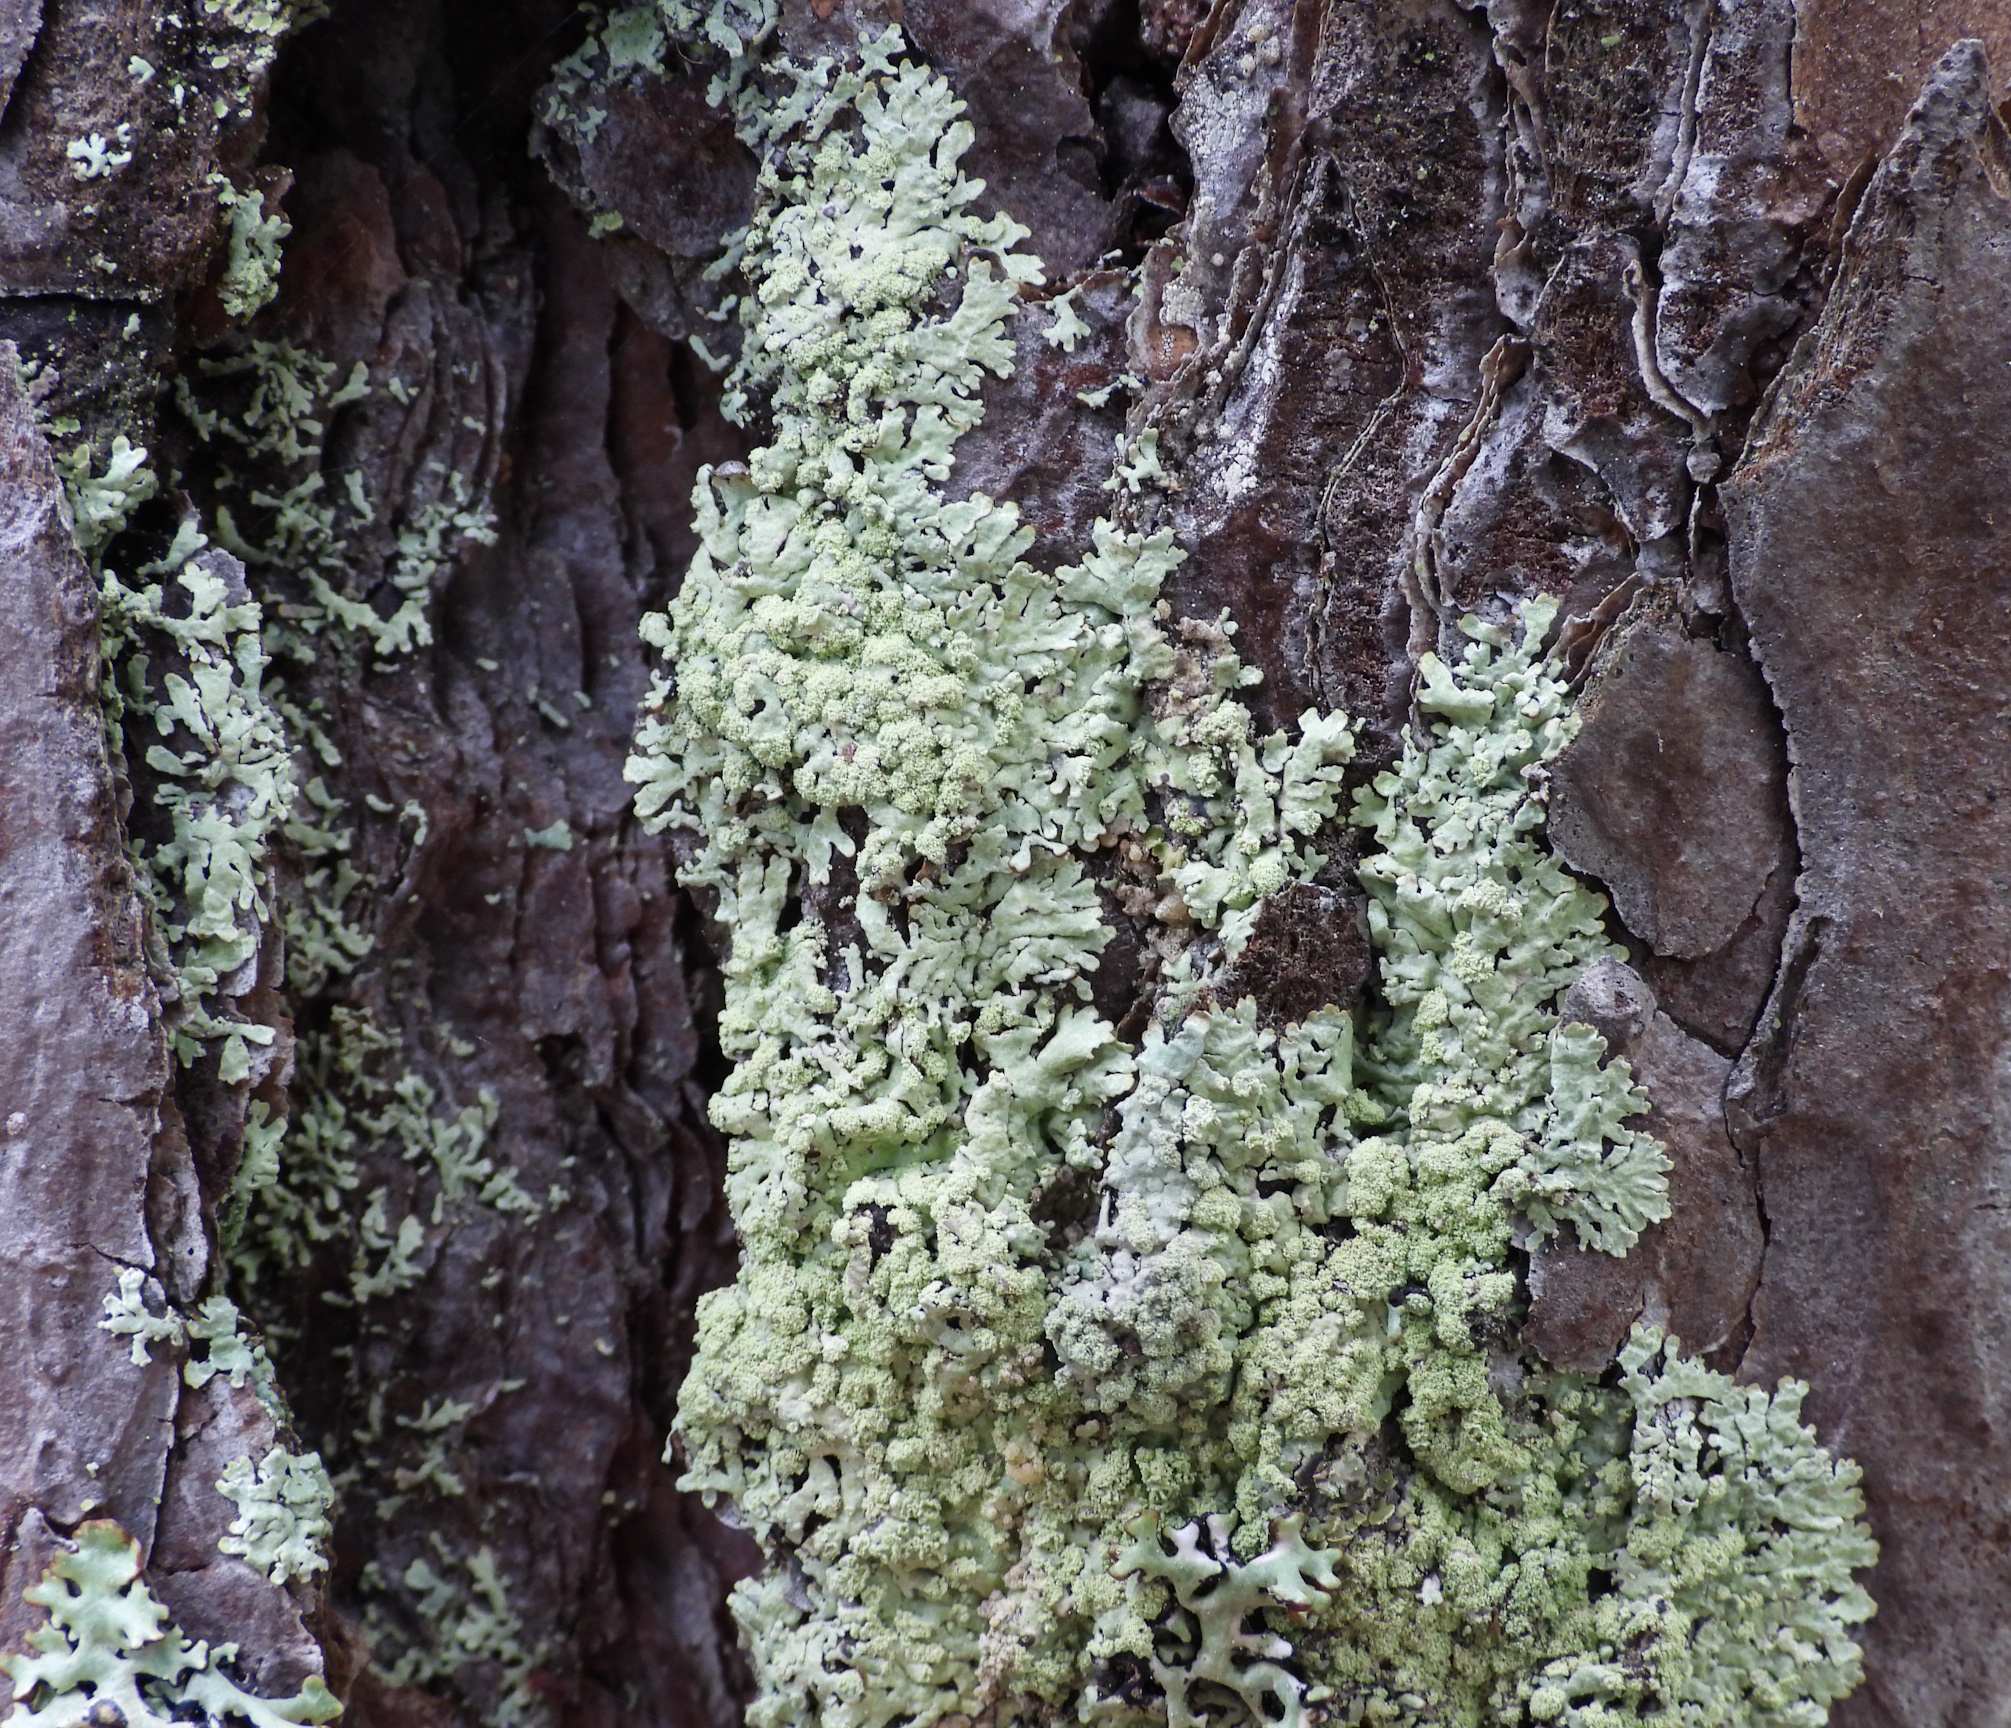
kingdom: Fungi
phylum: Ascomycota
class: Lecanoromycetes
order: Lecanorales
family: Parmeliaceae
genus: Parmeliopsis
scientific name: Parmeliopsis ambigua
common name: Green starburst lichen
